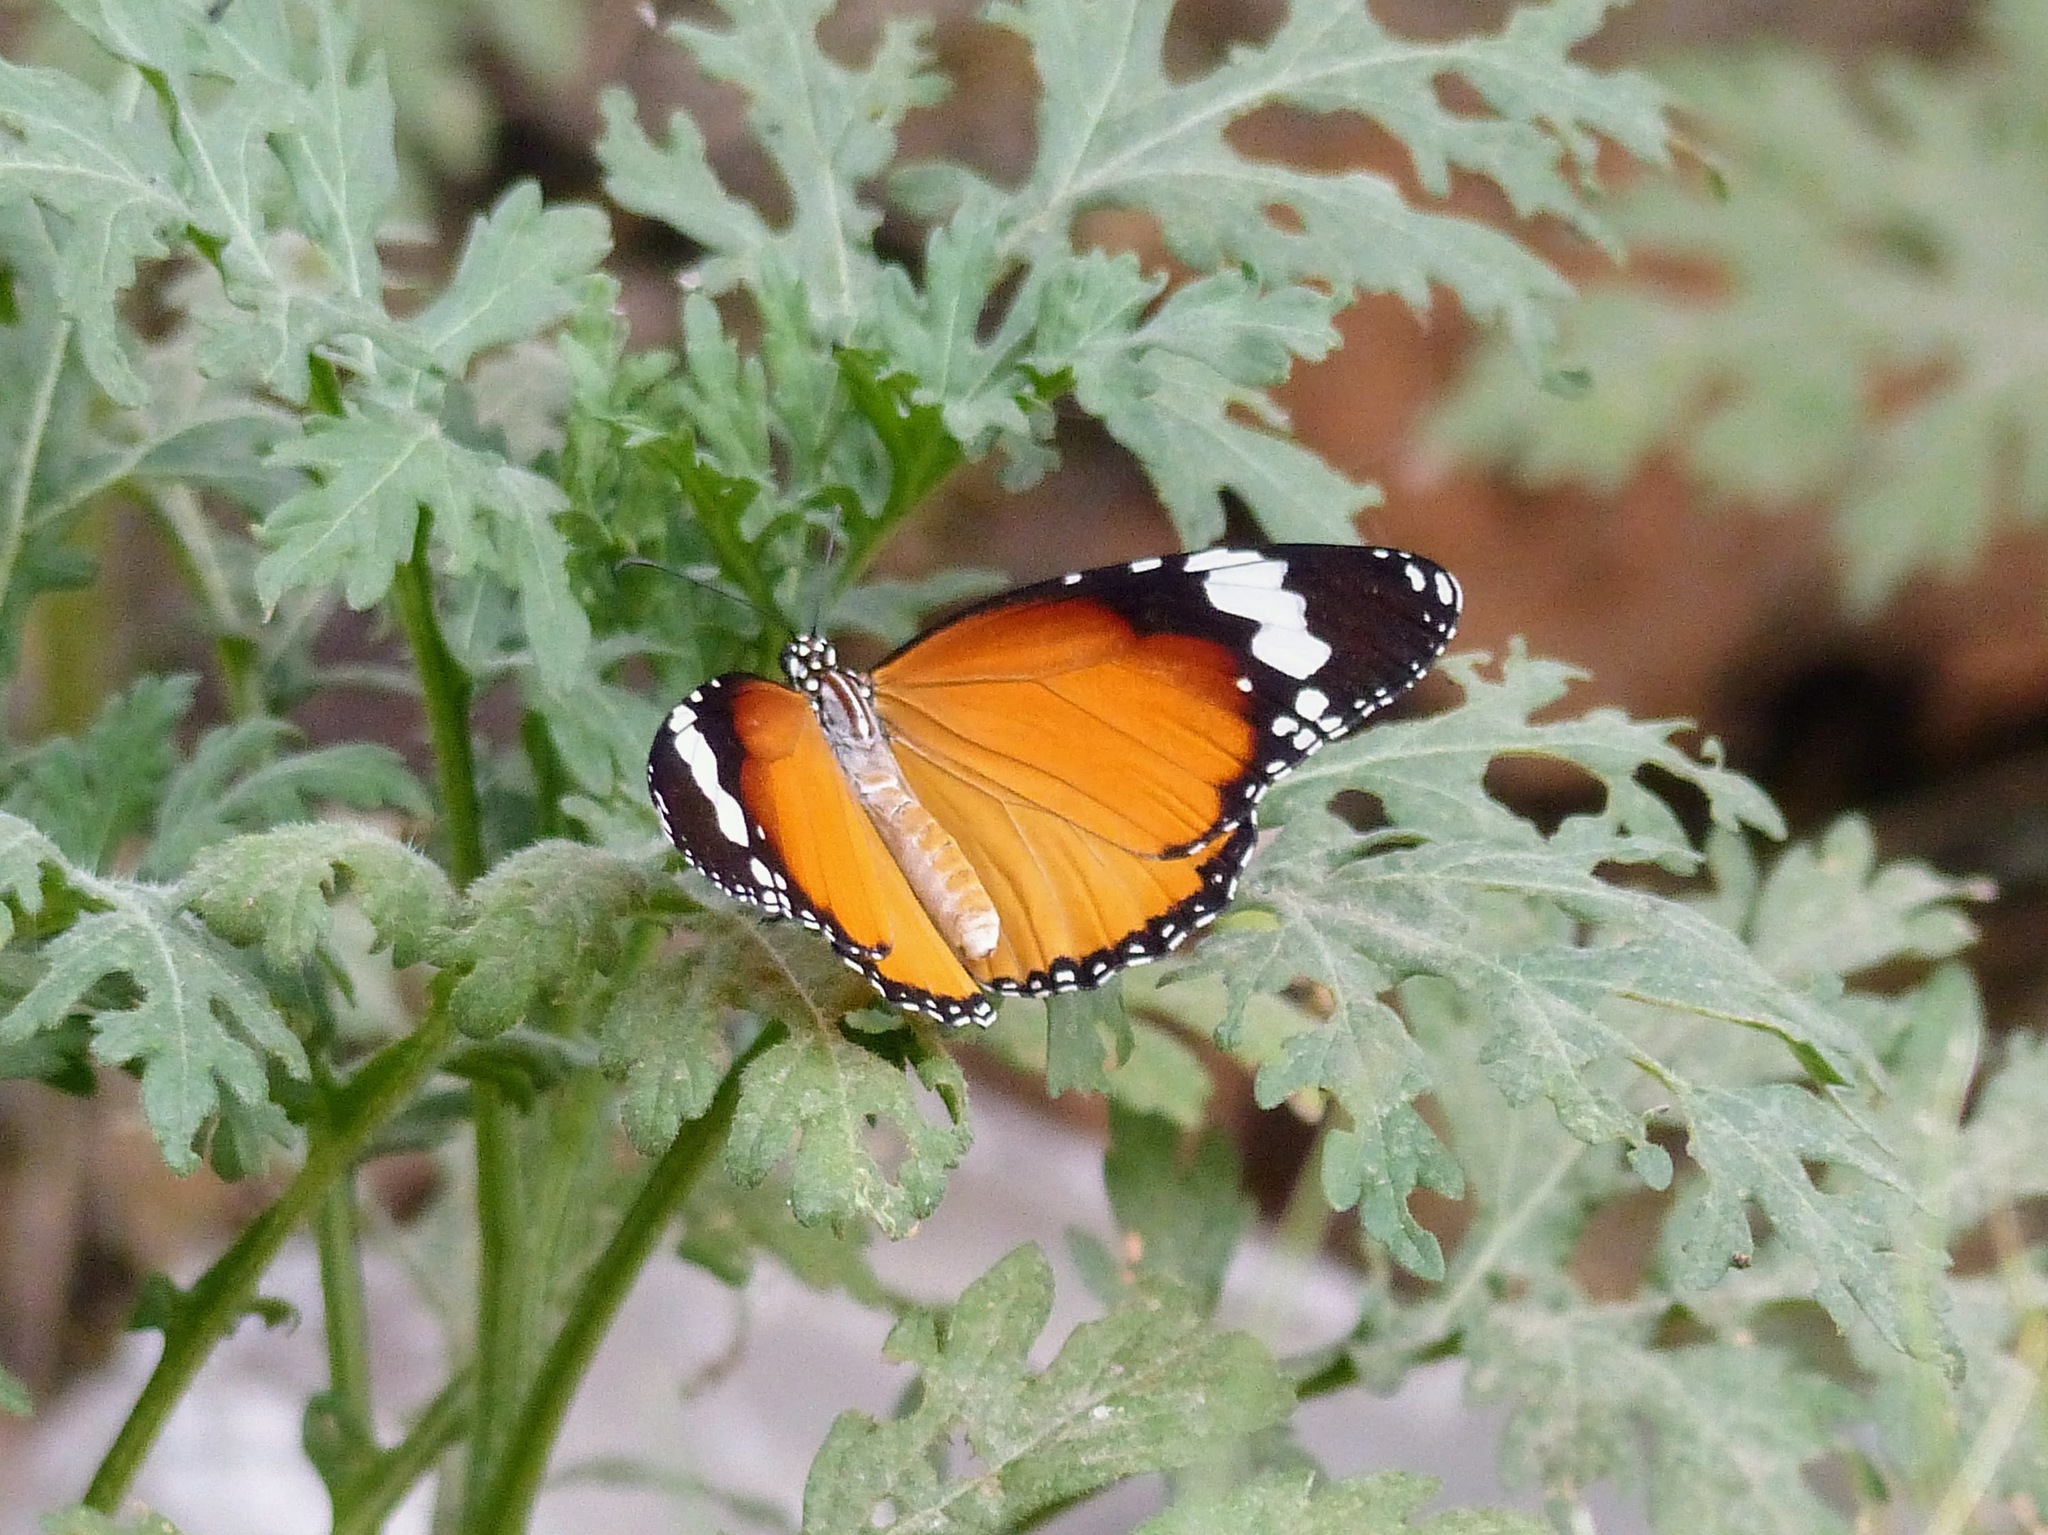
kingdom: Animalia
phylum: Arthropoda
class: Insecta
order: Lepidoptera
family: Nymphalidae
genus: Danaus
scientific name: Danaus chrysippus
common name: Plain tiger
